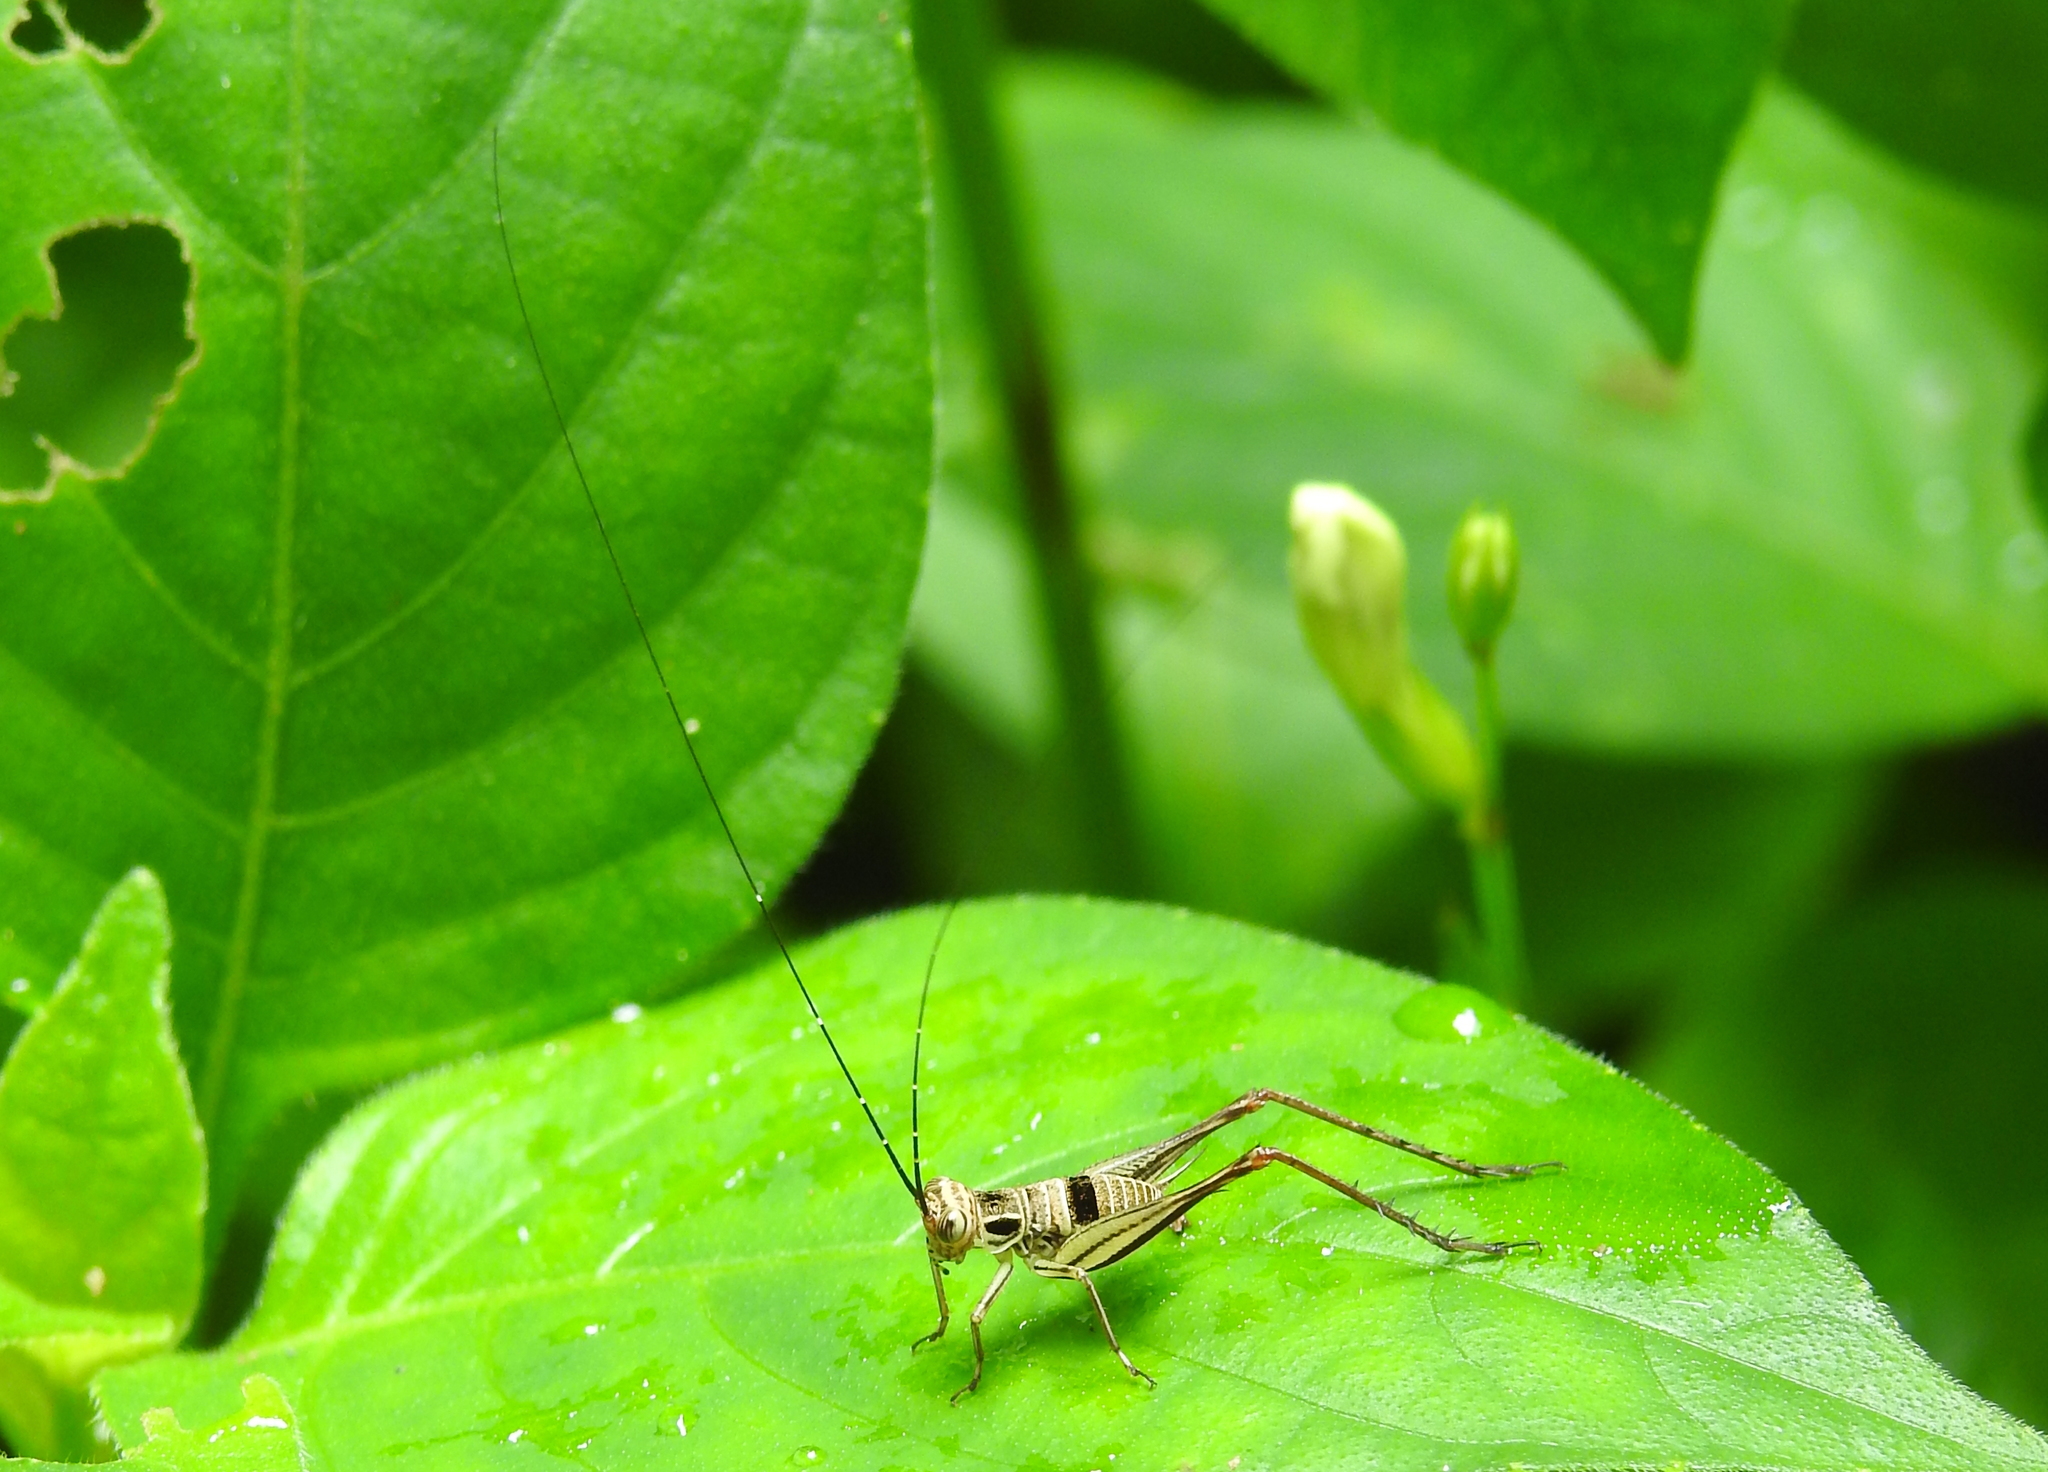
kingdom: Animalia
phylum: Arthropoda
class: Insecta
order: Orthoptera
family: Gryllidae
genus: Nisitrus
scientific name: Nisitrus malaya
